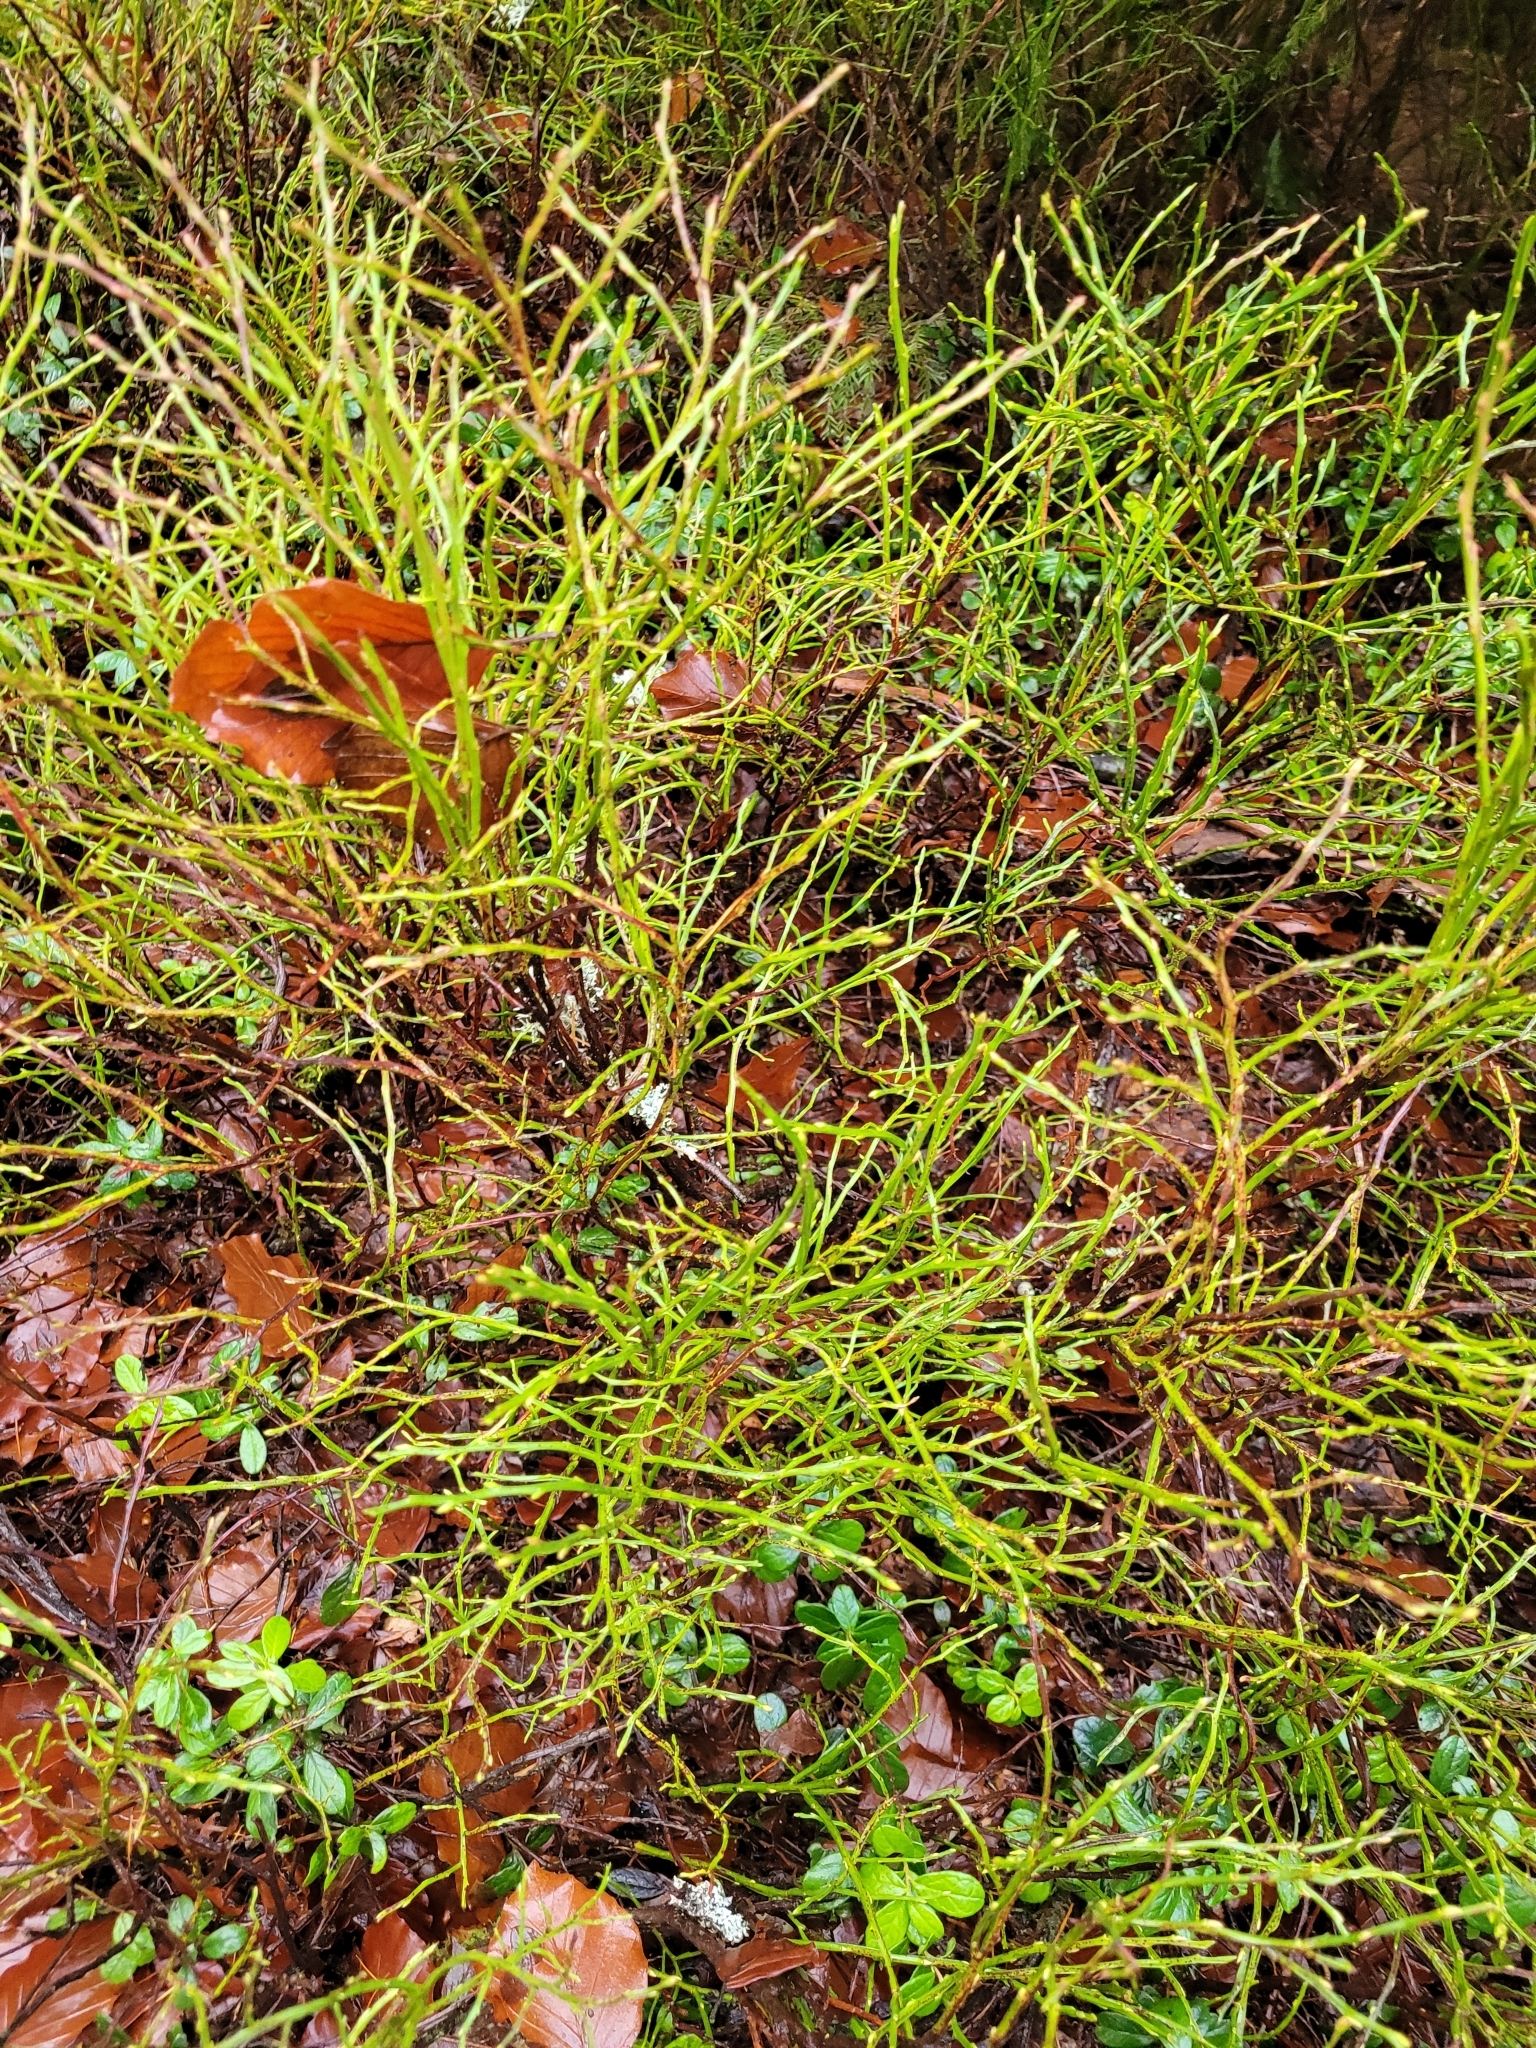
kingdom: Plantae
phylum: Tracheophyta
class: Magnoliopsida
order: Ericales
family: Ericaceae
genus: Vaccinium
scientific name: Vaccinium myrtillus
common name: Bilberry
